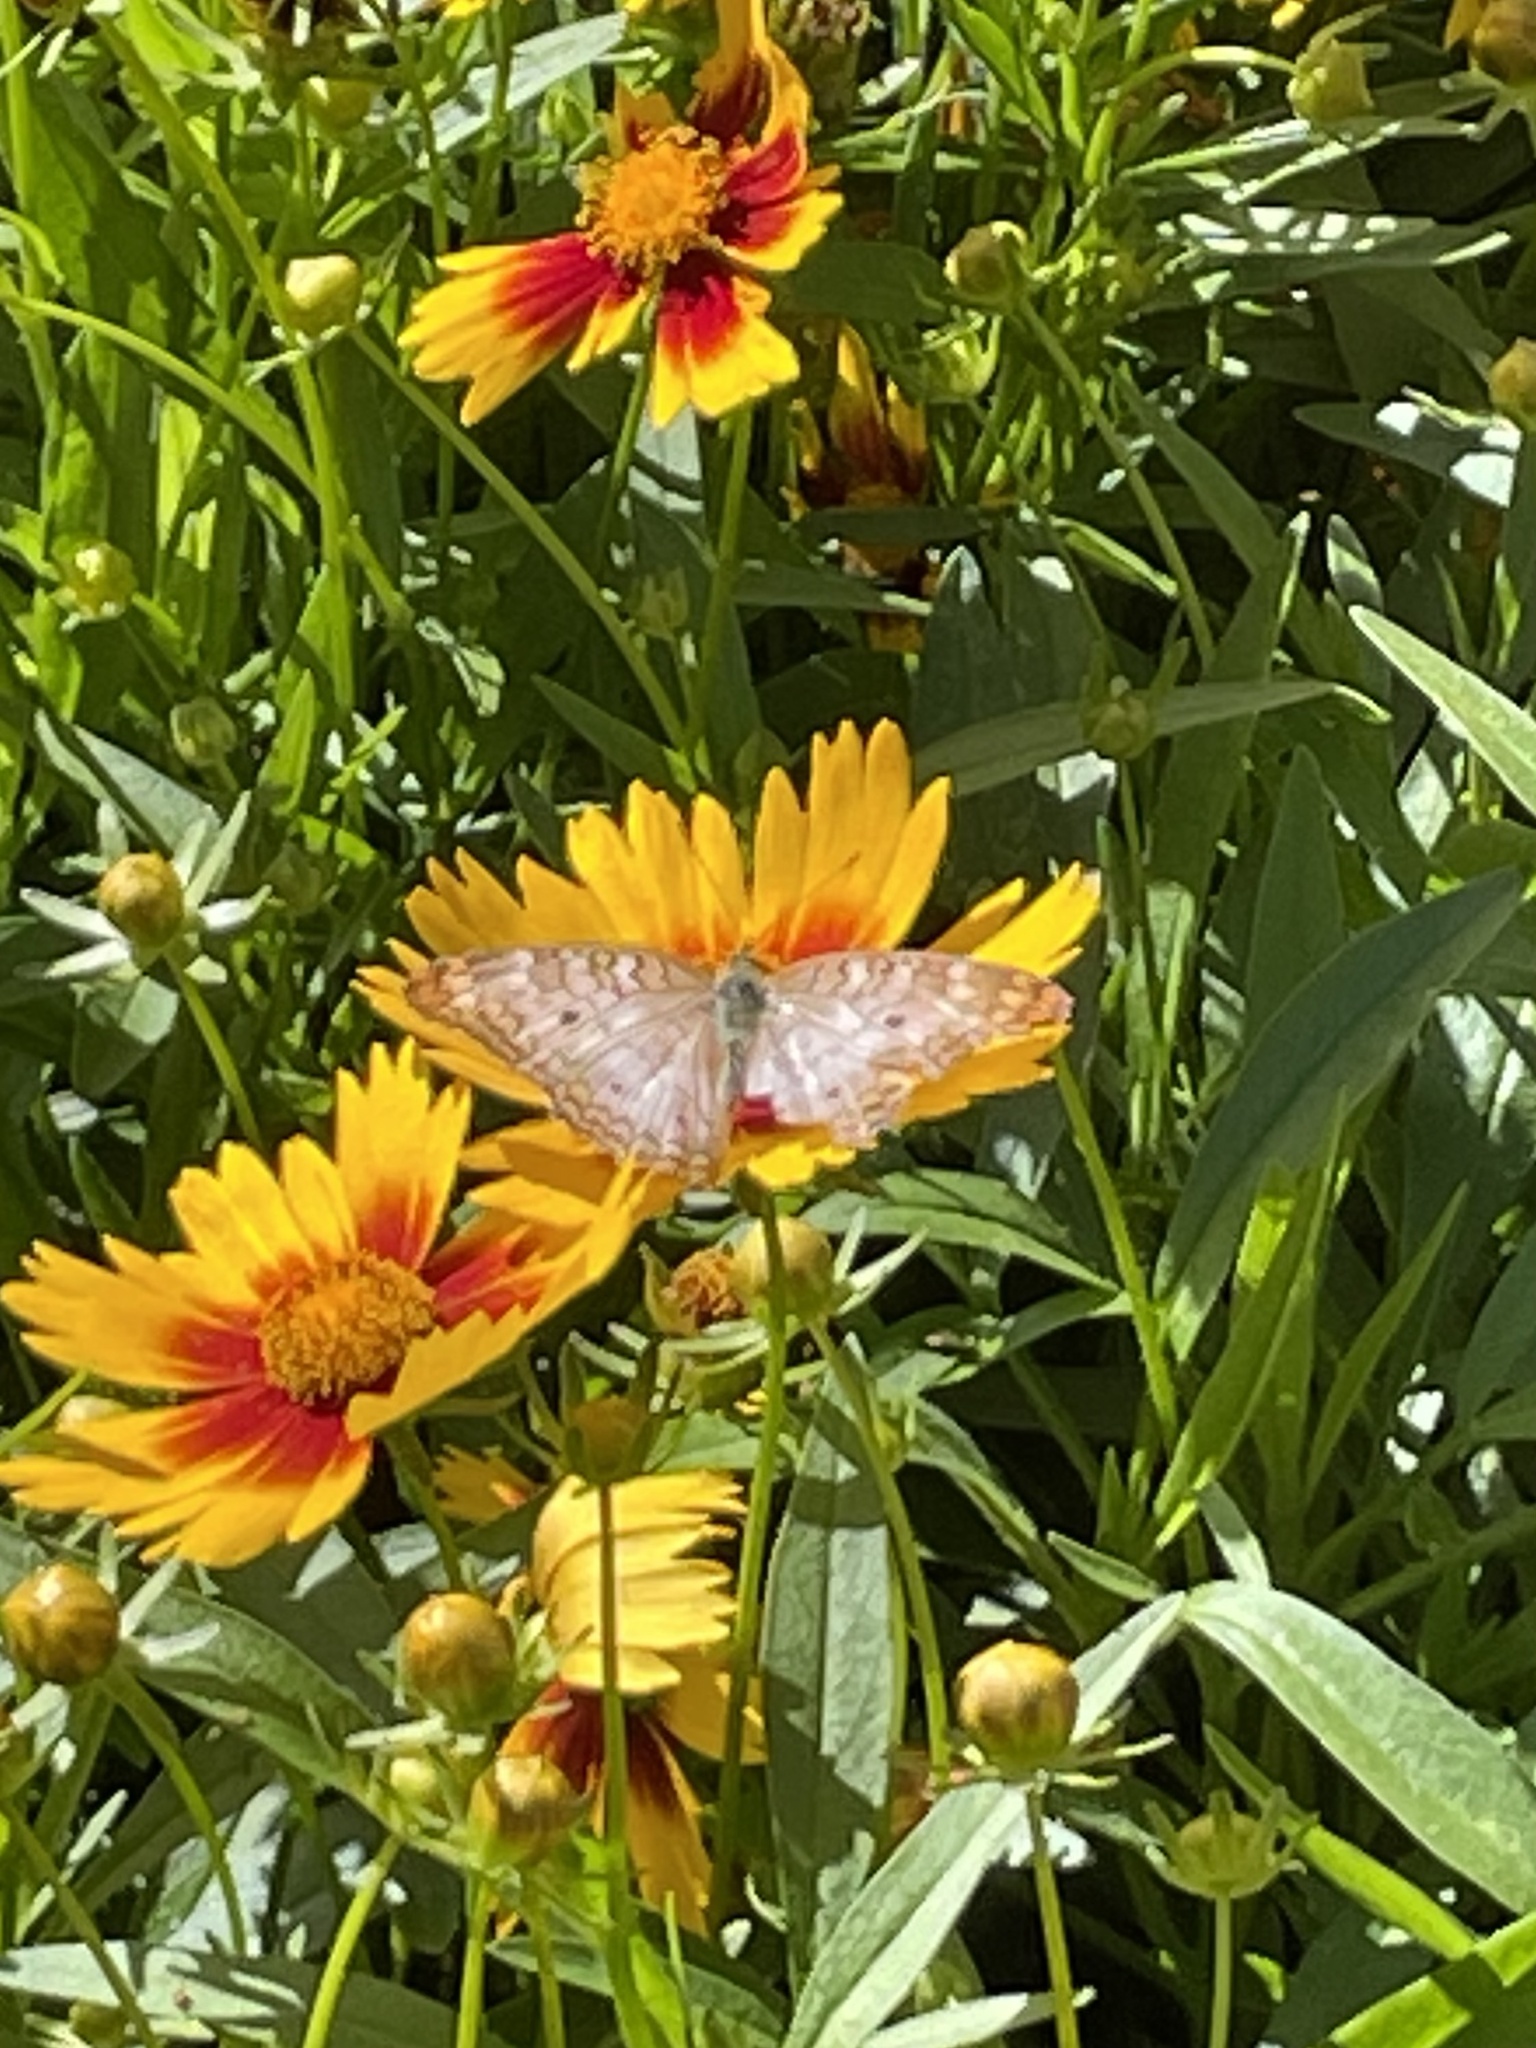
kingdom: Animalia
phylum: Arthropoda
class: Insecta
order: Lepidoptera
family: Nymphalidae
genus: Anartia
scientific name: Anartia jatrophae
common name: White peacock
